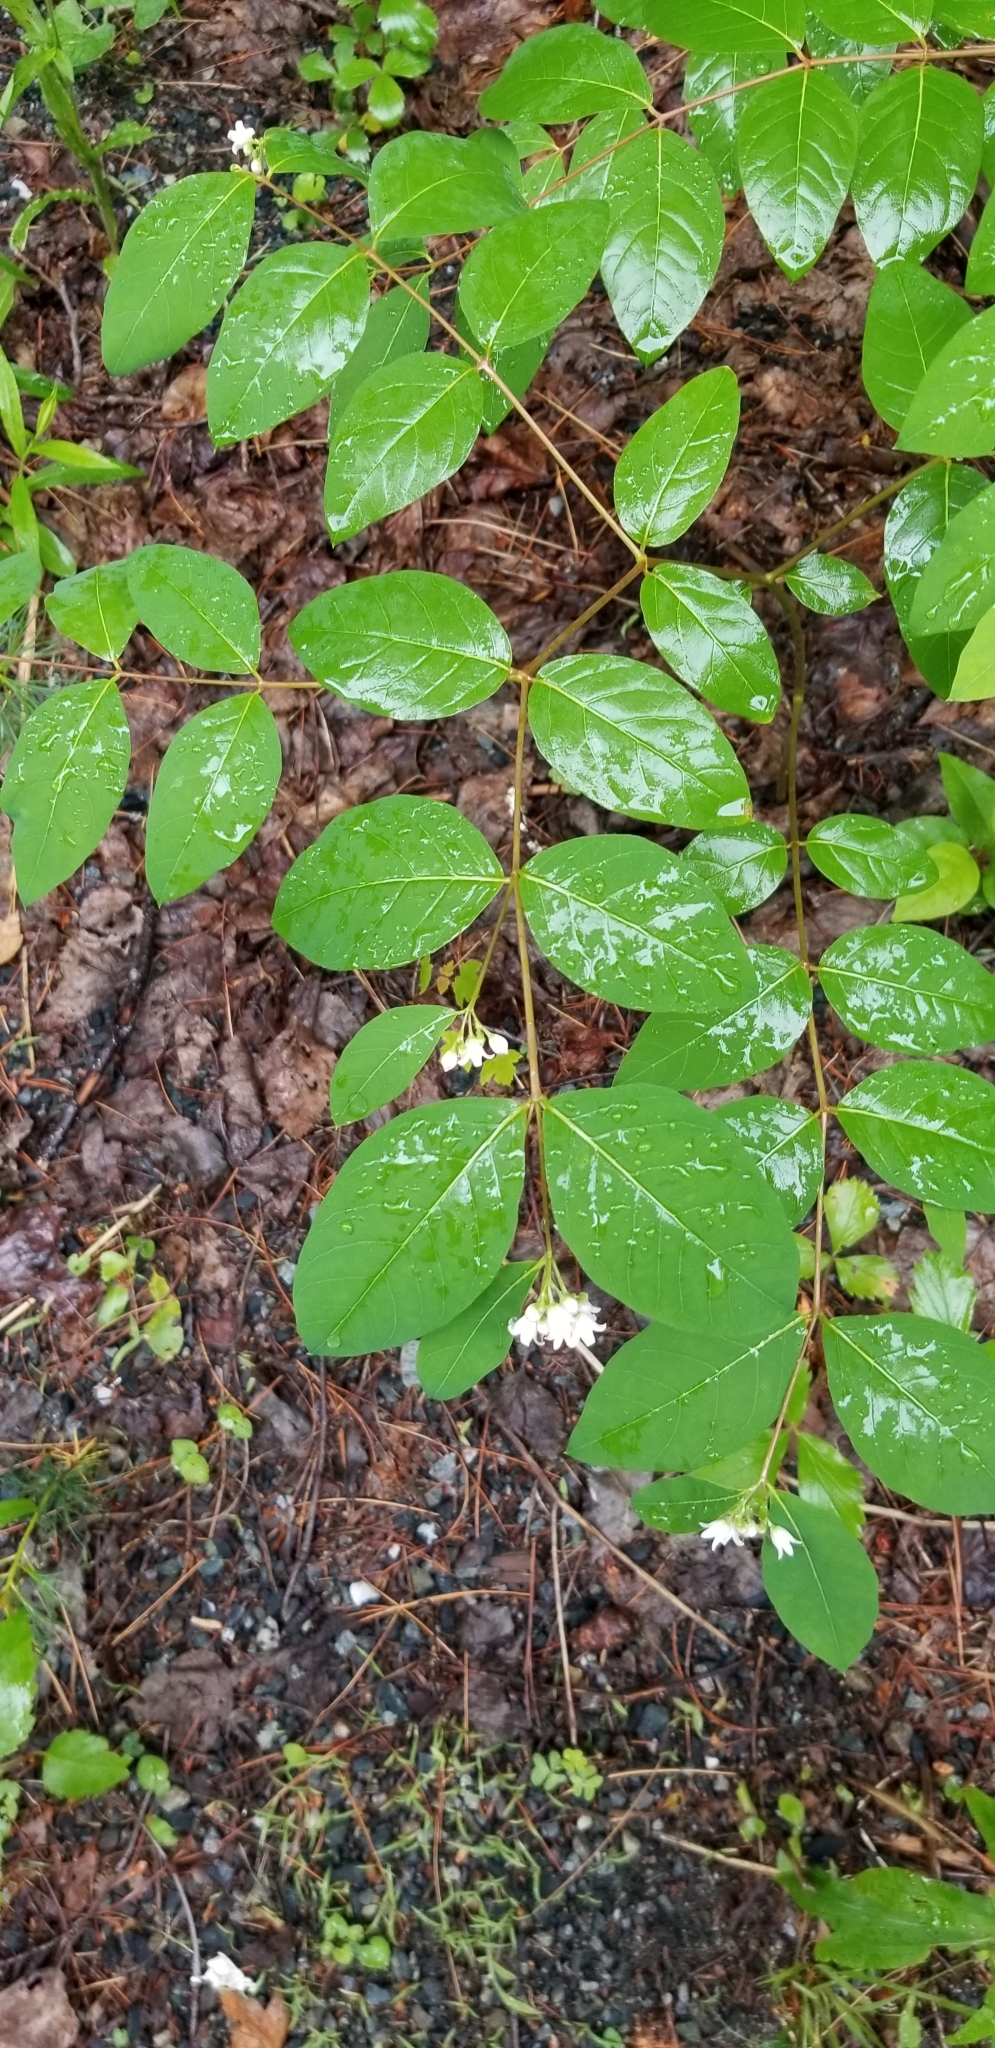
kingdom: Plantae
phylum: Tracheophyta
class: Magnoliopsida
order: Gentianales
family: Apocynaceae
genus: Apocynum
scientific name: Apocynum androsaemifolium
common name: Spreading dogbane
